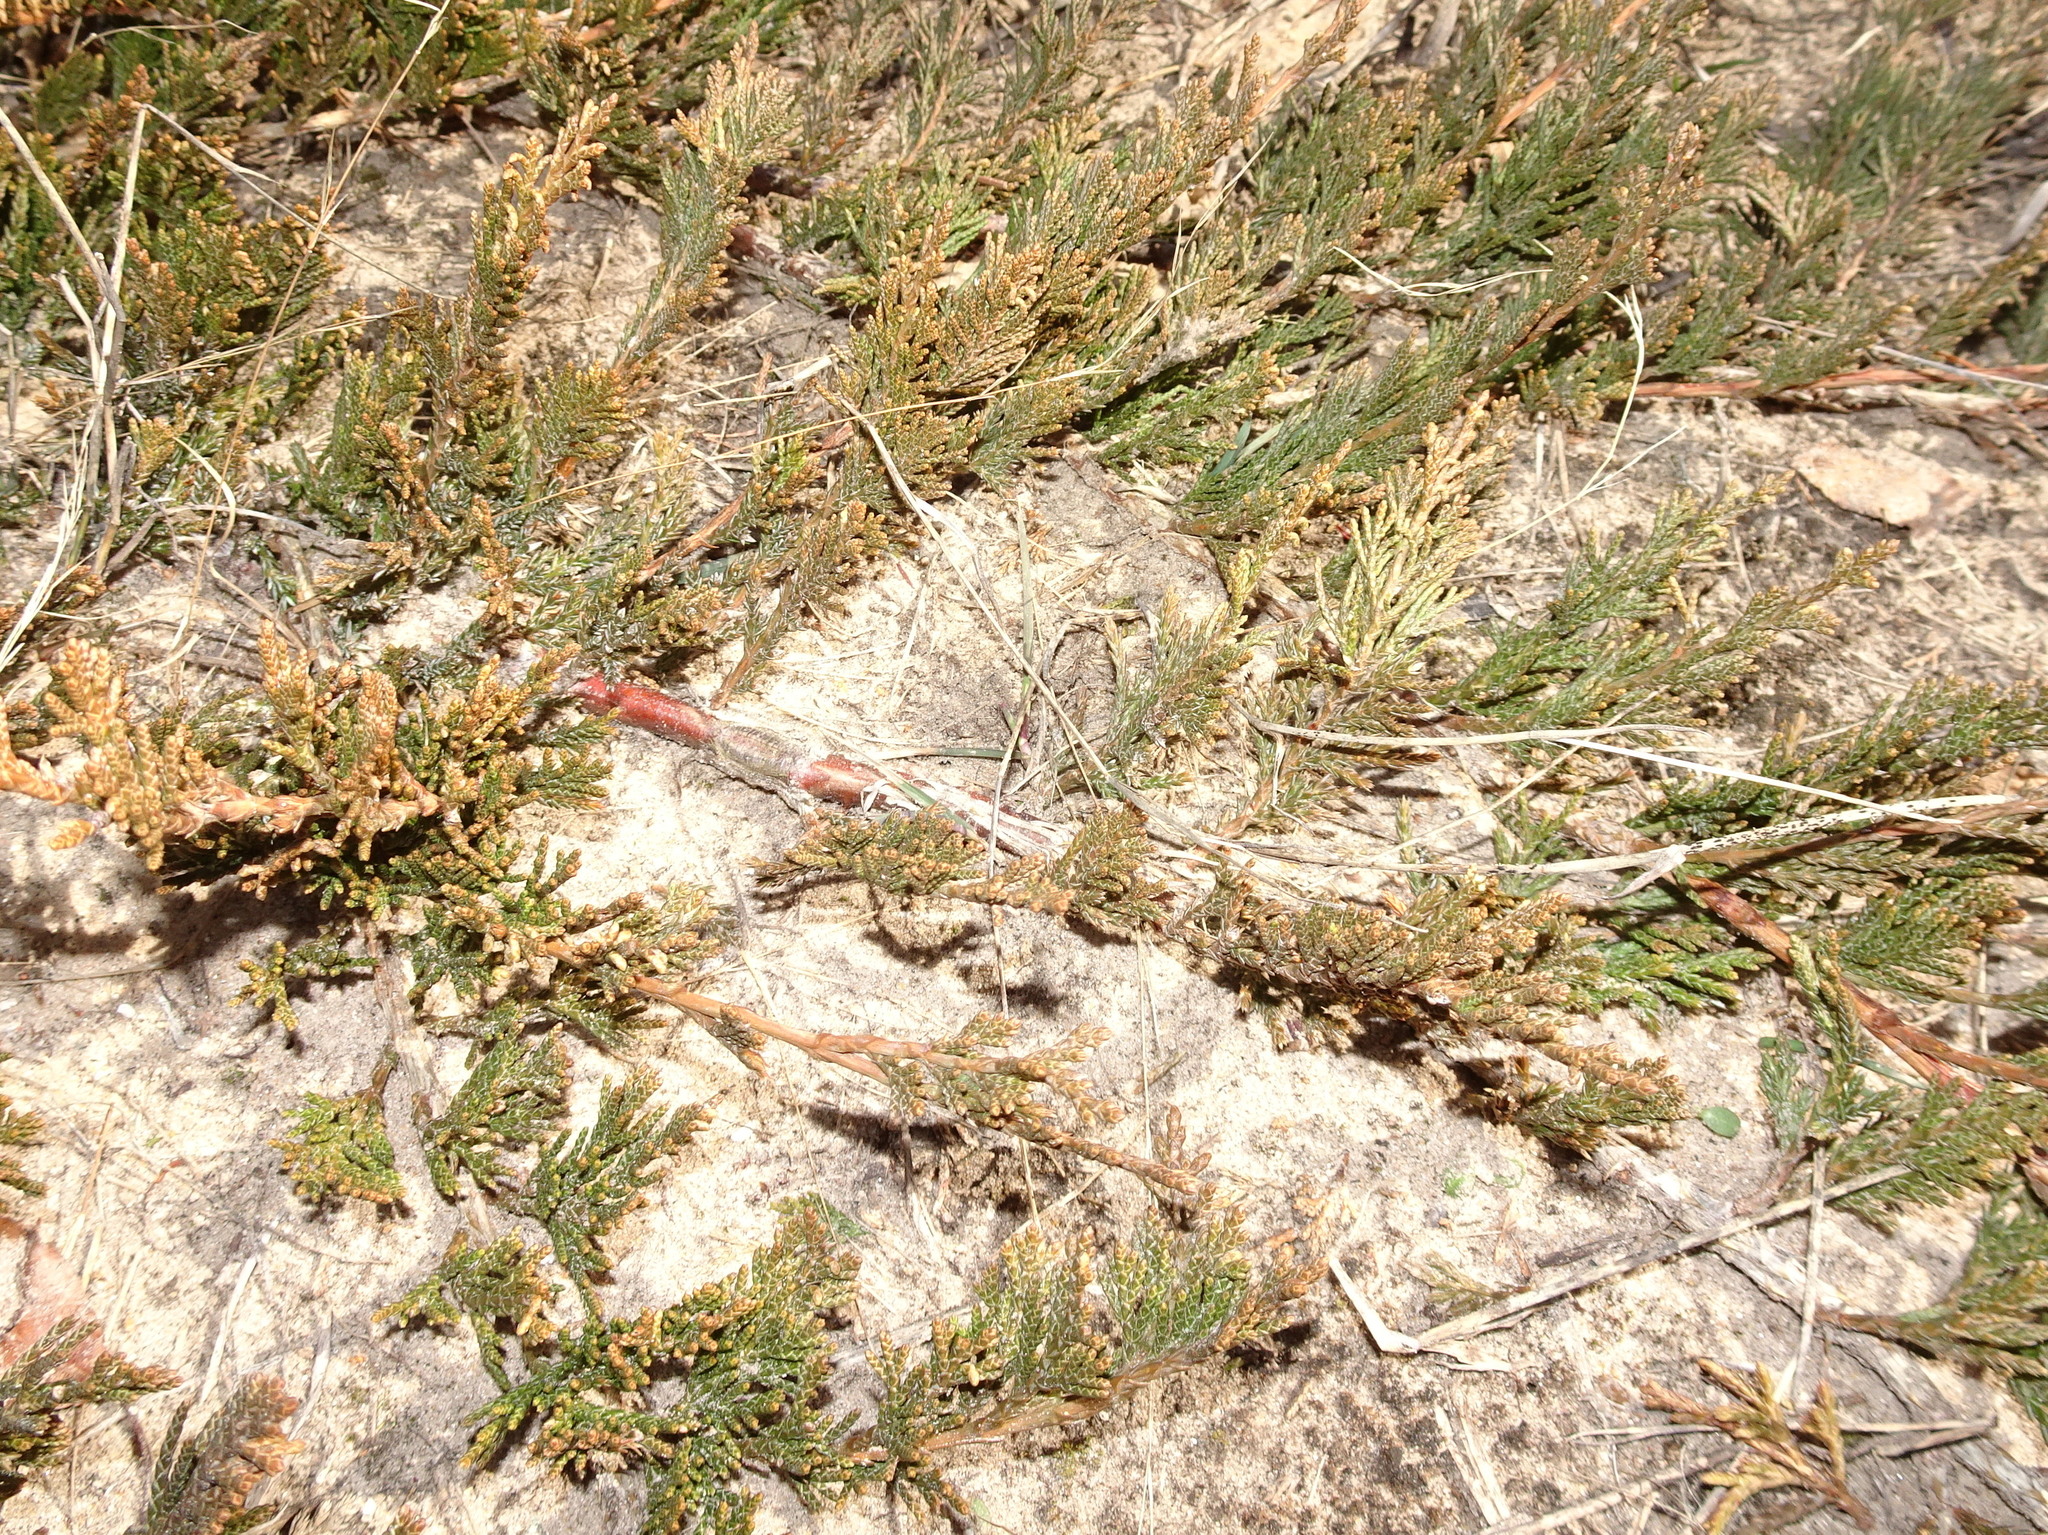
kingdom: Plantae
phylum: Tracheophyta
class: Pinopsida
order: Pinales
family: Cupressaceae
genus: Juniperus
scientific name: Juniperus horizontalis
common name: Creeping juniper
